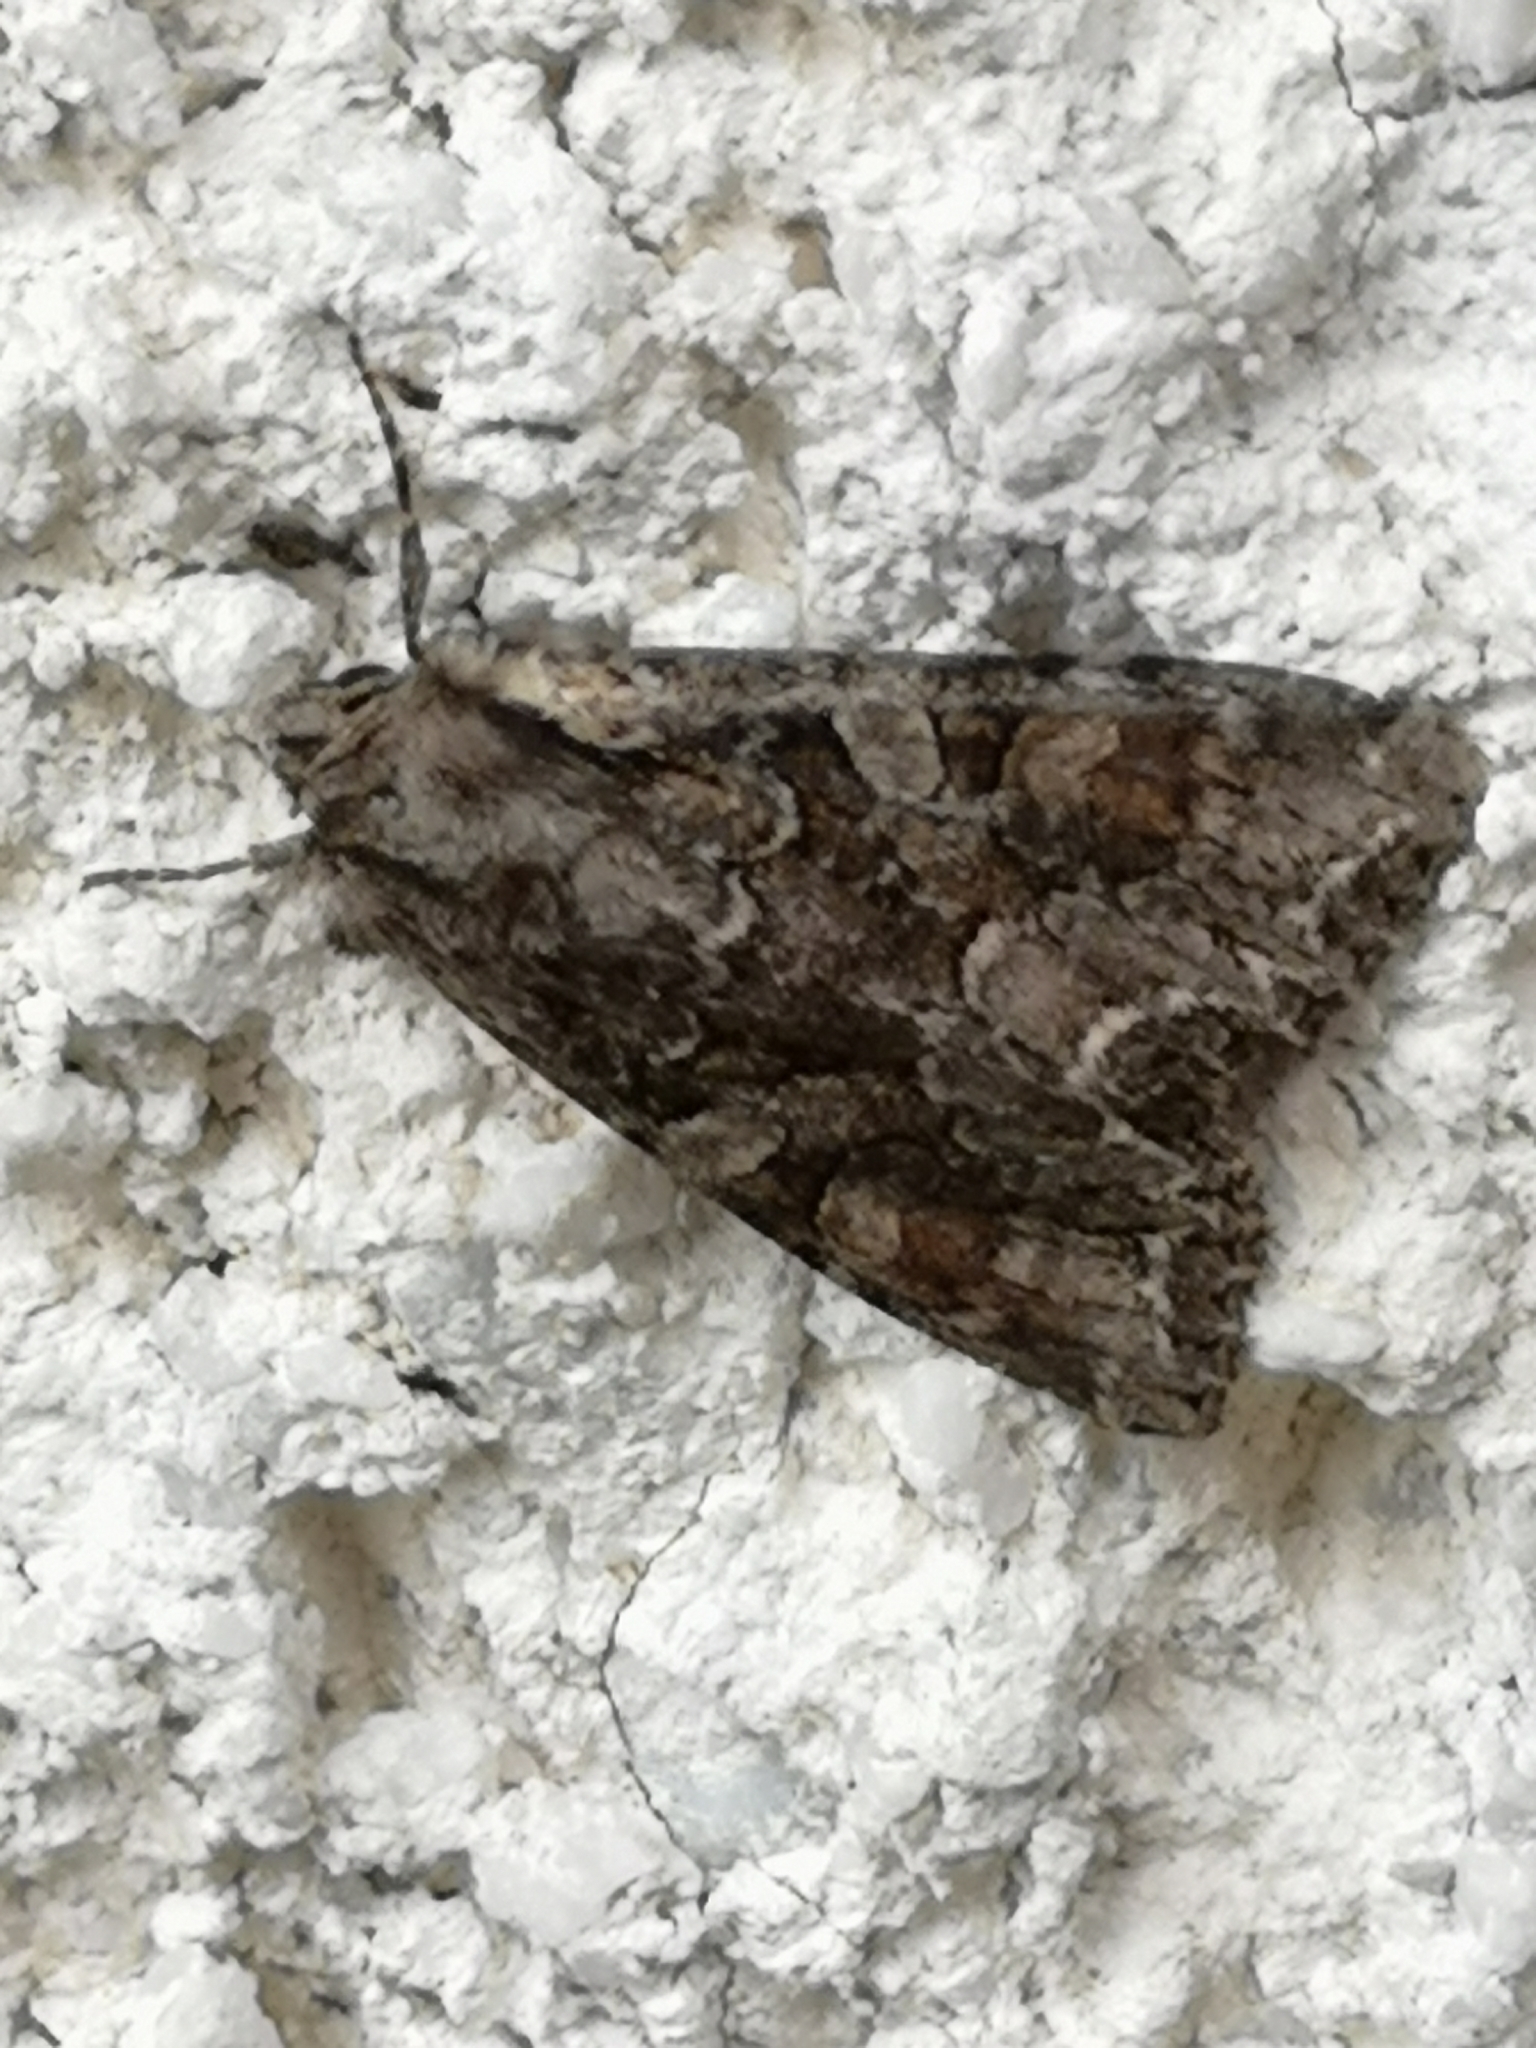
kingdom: Animalia
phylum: Arthropoda
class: Insecta
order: Lepidoptera
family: Noctuidae
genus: Lacanobia
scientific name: Lacanobia thalassina
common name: Pale-shouldered brocade
